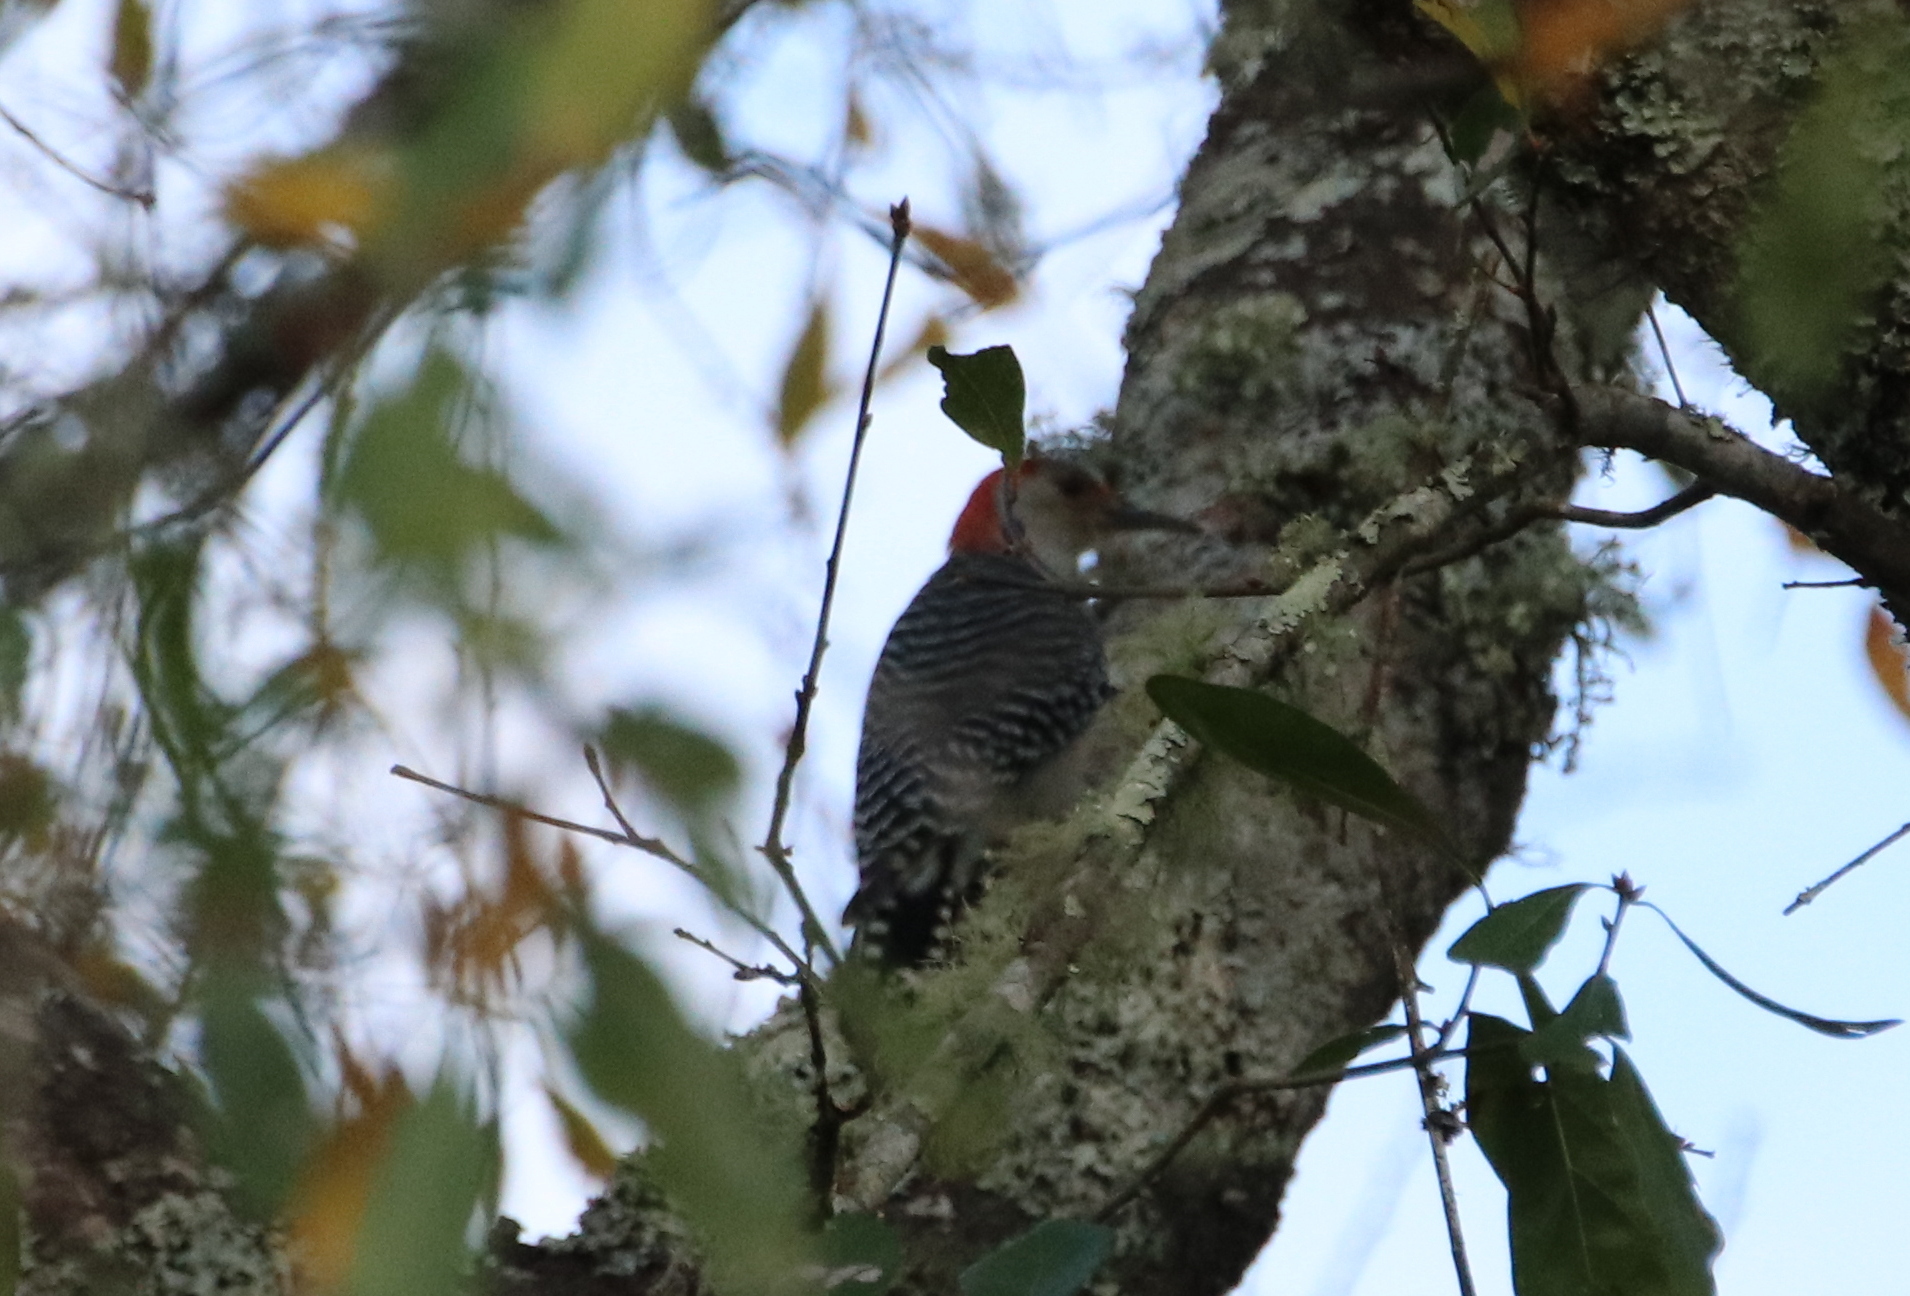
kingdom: Animalia
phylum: Chordata
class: Aves
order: Piciformes
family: Picidae
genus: Melanerpes
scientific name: Melanerpes carolinus
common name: Red-bellied woodpecker
